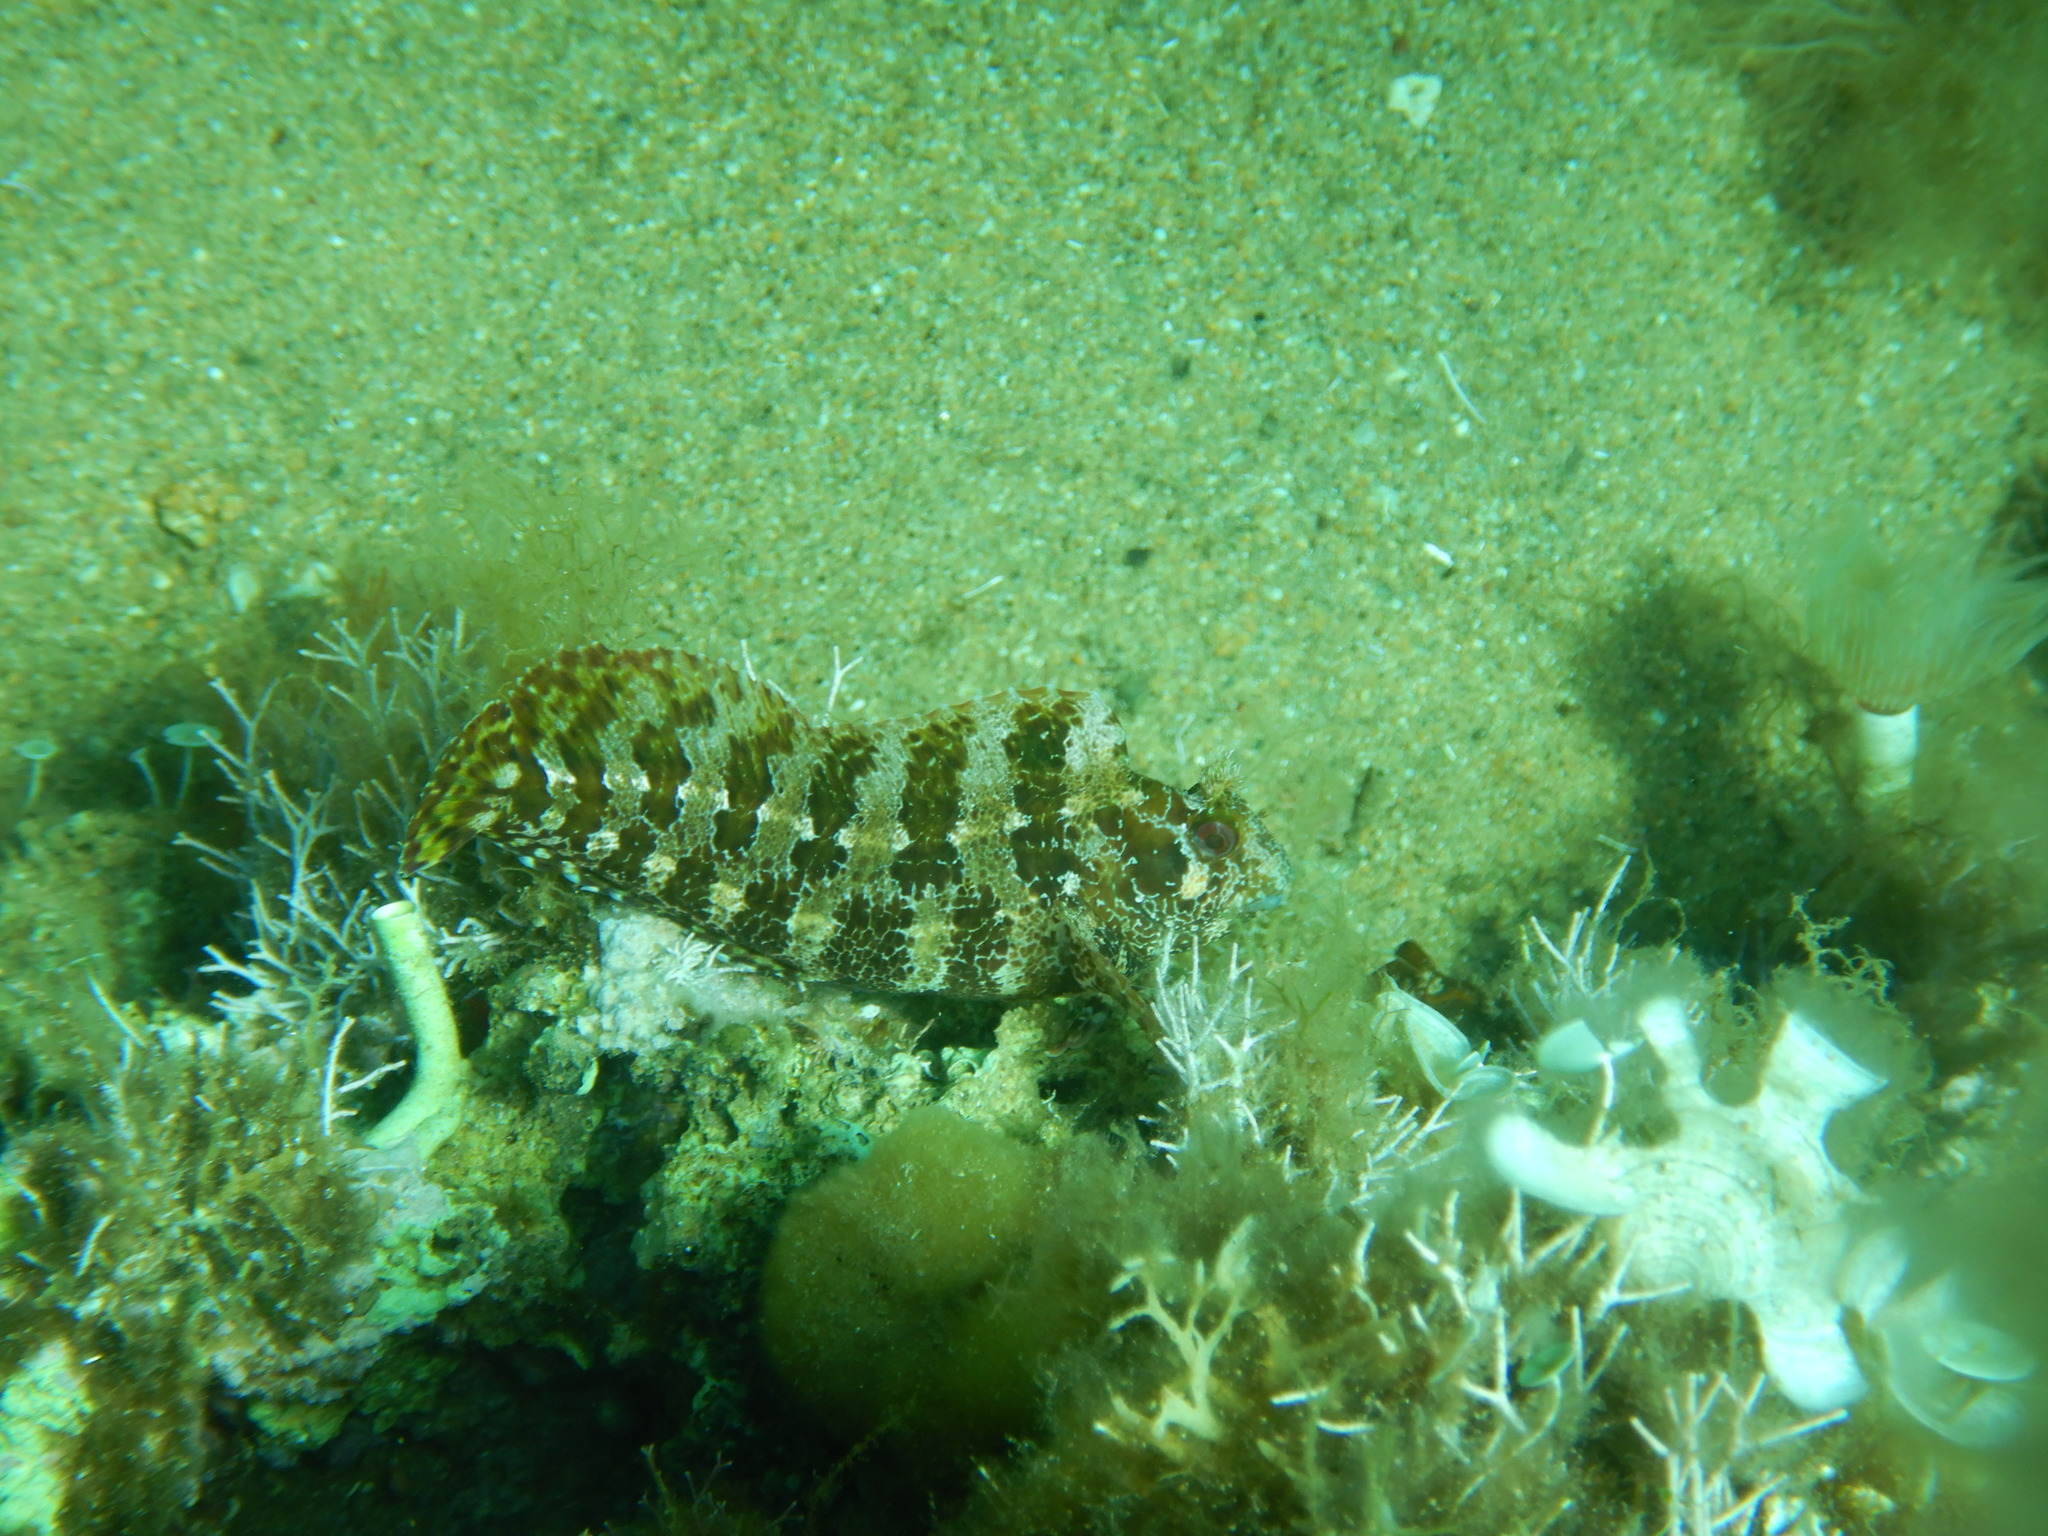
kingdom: Animalia
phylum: Chordata
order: Perciformes
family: Blenniidae
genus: Parablennius
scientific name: Parablennius gattorugine
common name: Tompot blenny
